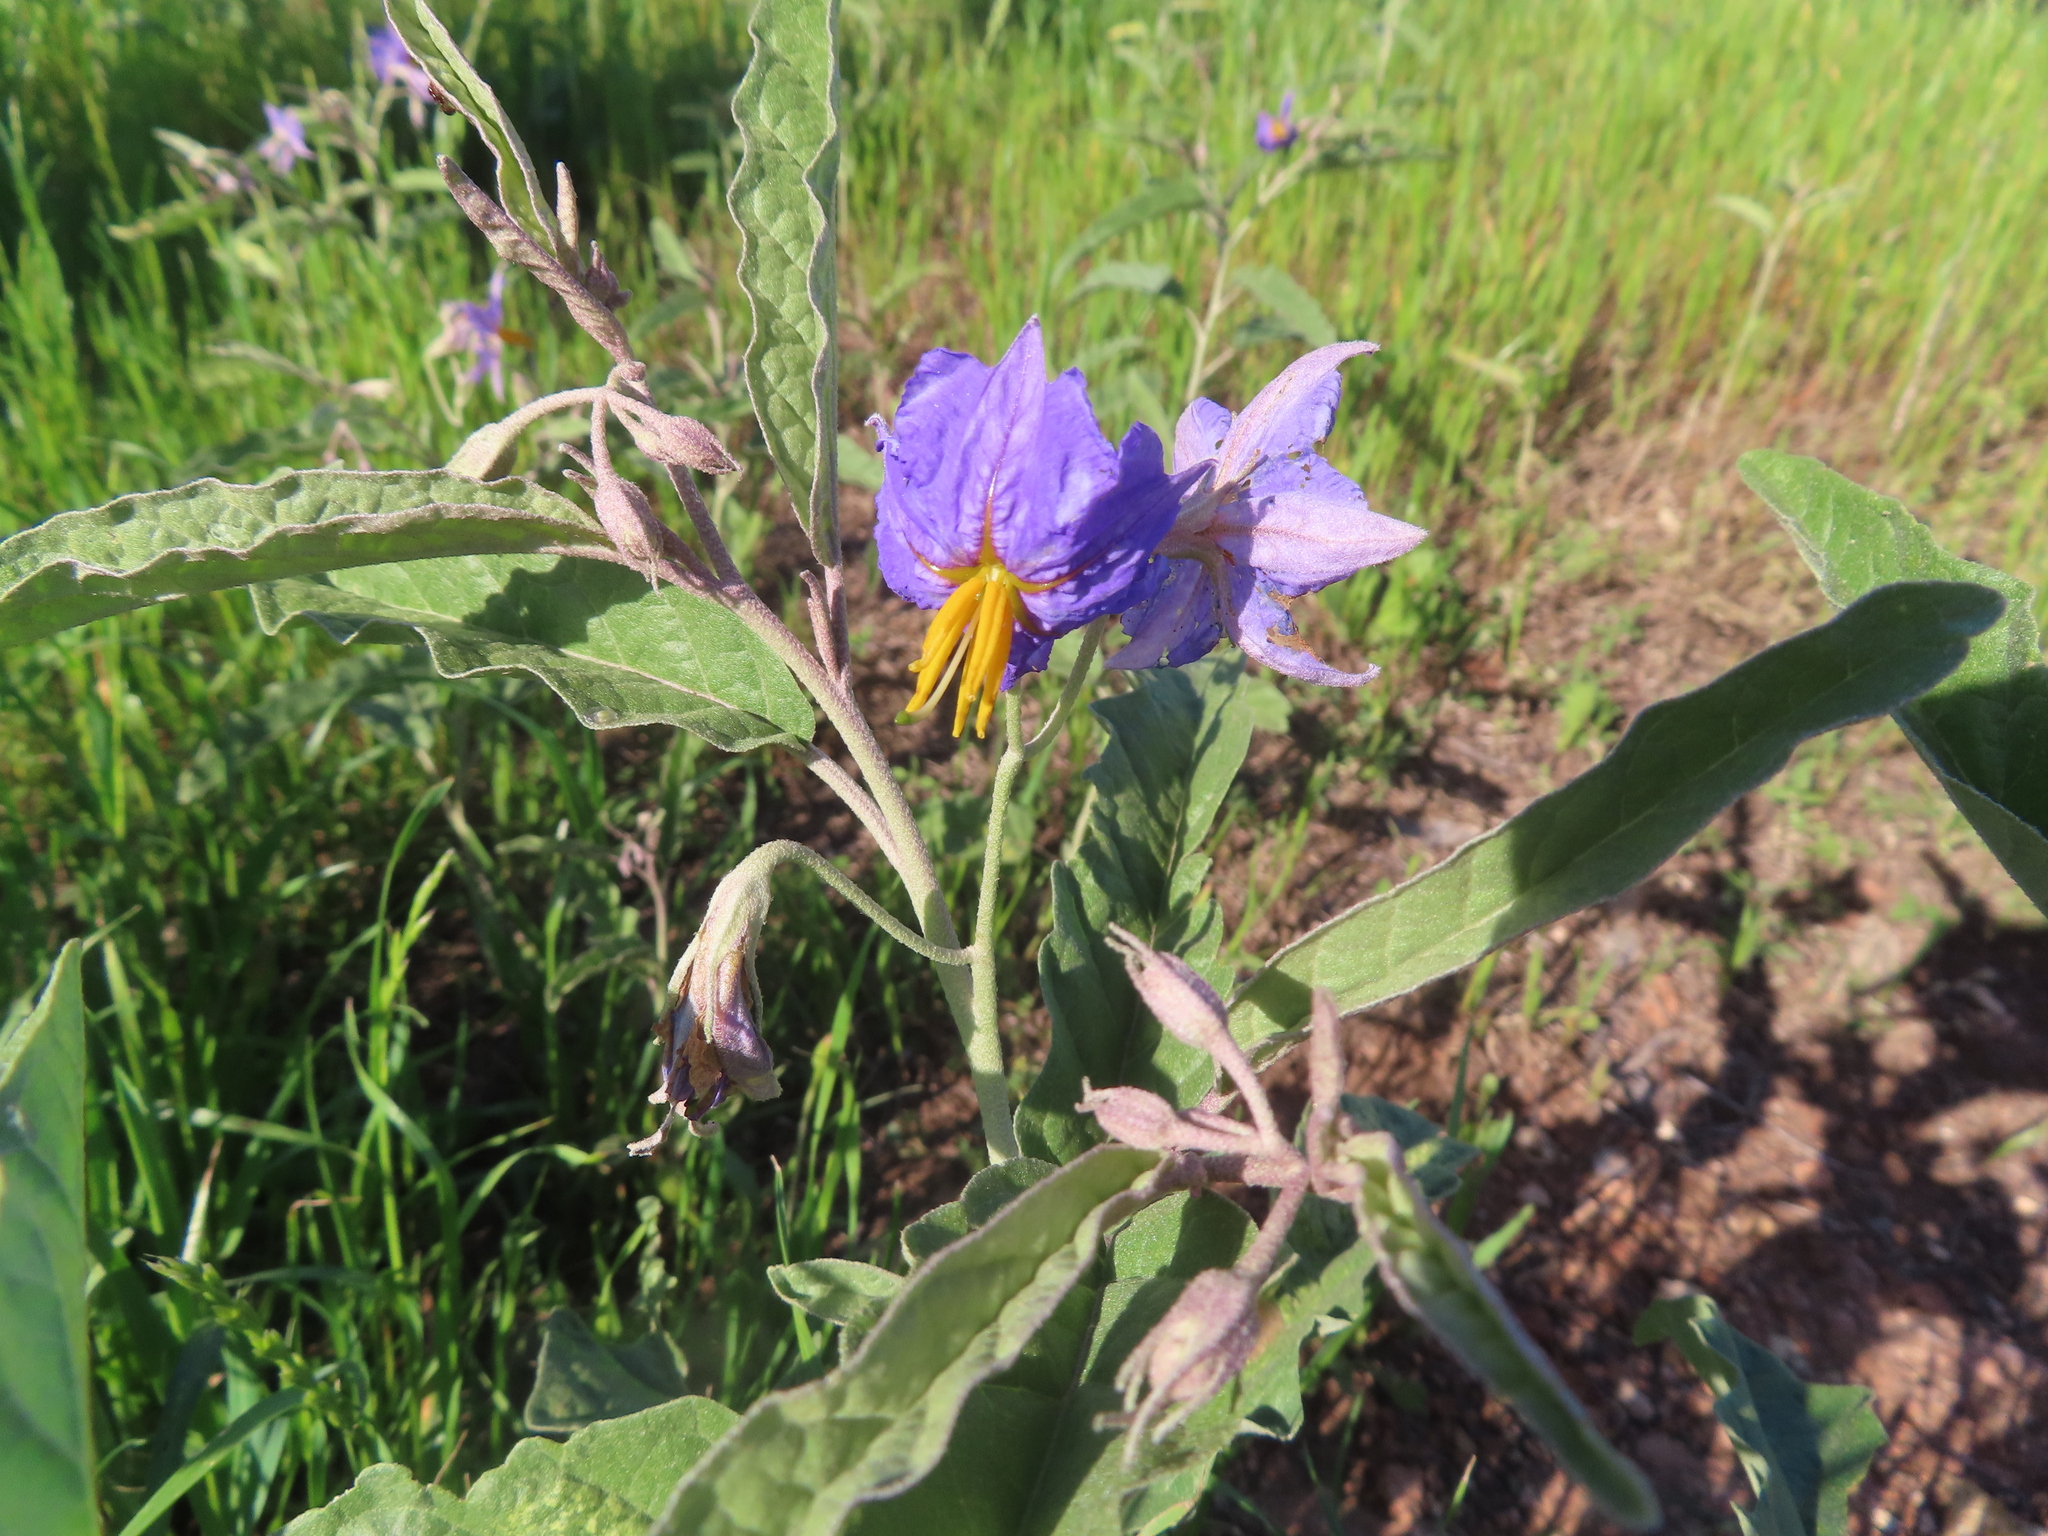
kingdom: Plantae
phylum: Tracheophyta
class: Magnoliopsida
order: Solanales
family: Solanaceae
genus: Solanum
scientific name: Solanum elaeagnifolium
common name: Silverleaf nightshade
